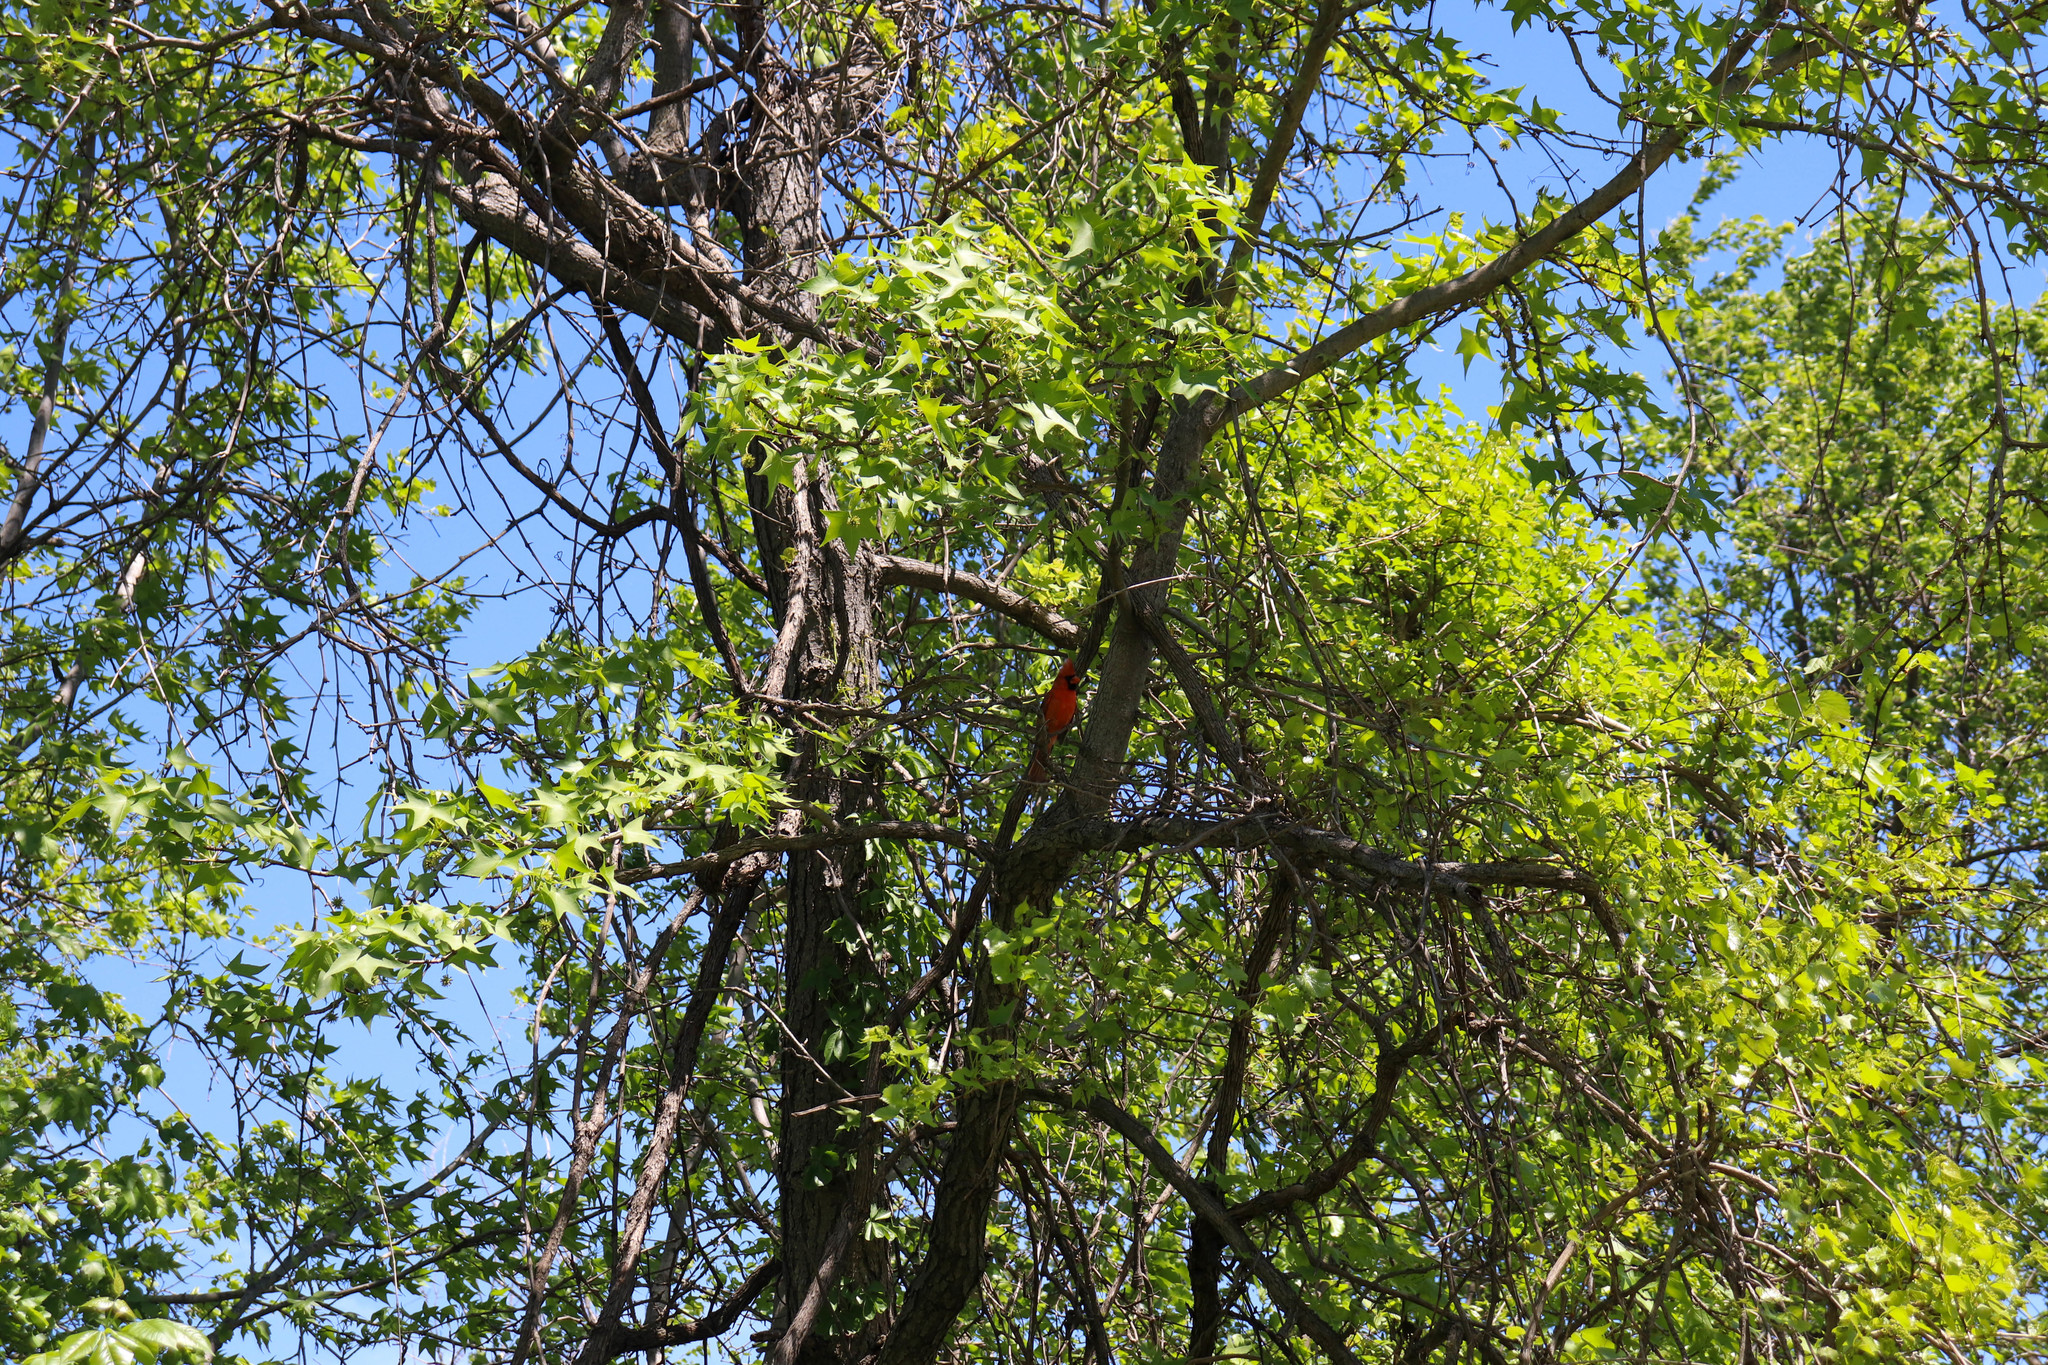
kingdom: Animalia
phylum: Chordata
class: Aves
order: Passeriformes
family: Cardinalidae
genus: Cardinalis
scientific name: Cardinalis cardinalis
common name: Northern cardinal
